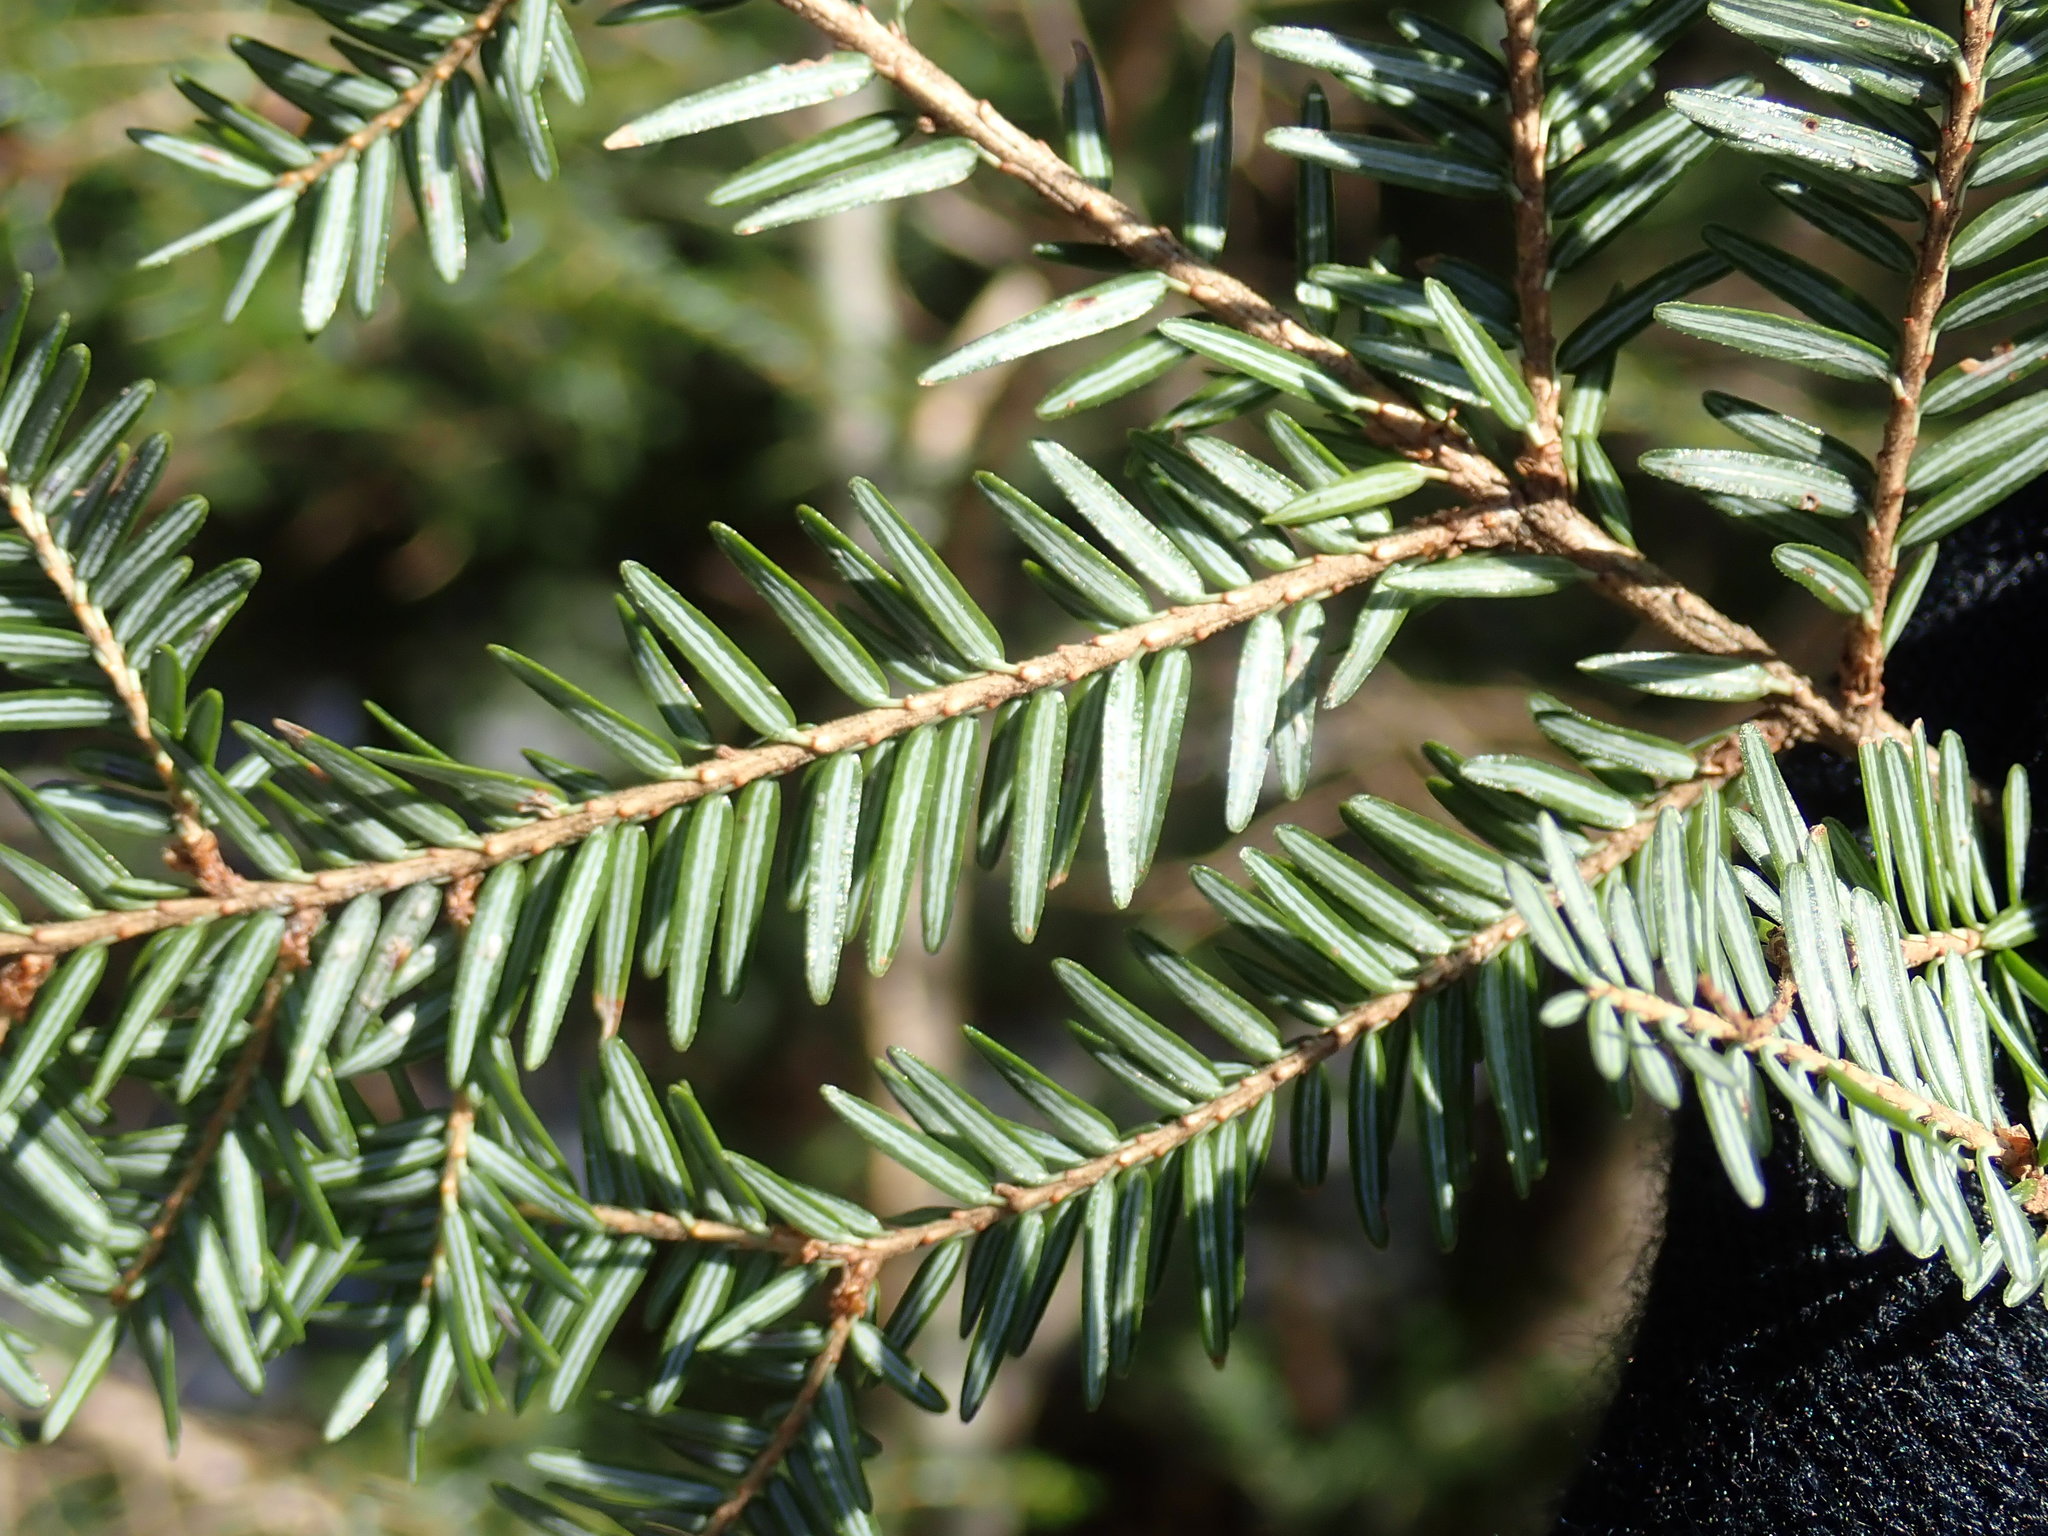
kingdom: Plantae
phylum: Tracheophyta
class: Pinopsida
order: Pinales
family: Pinaceae
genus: Tsuga
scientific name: Tsuga canadensis
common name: Eastern hemlock
